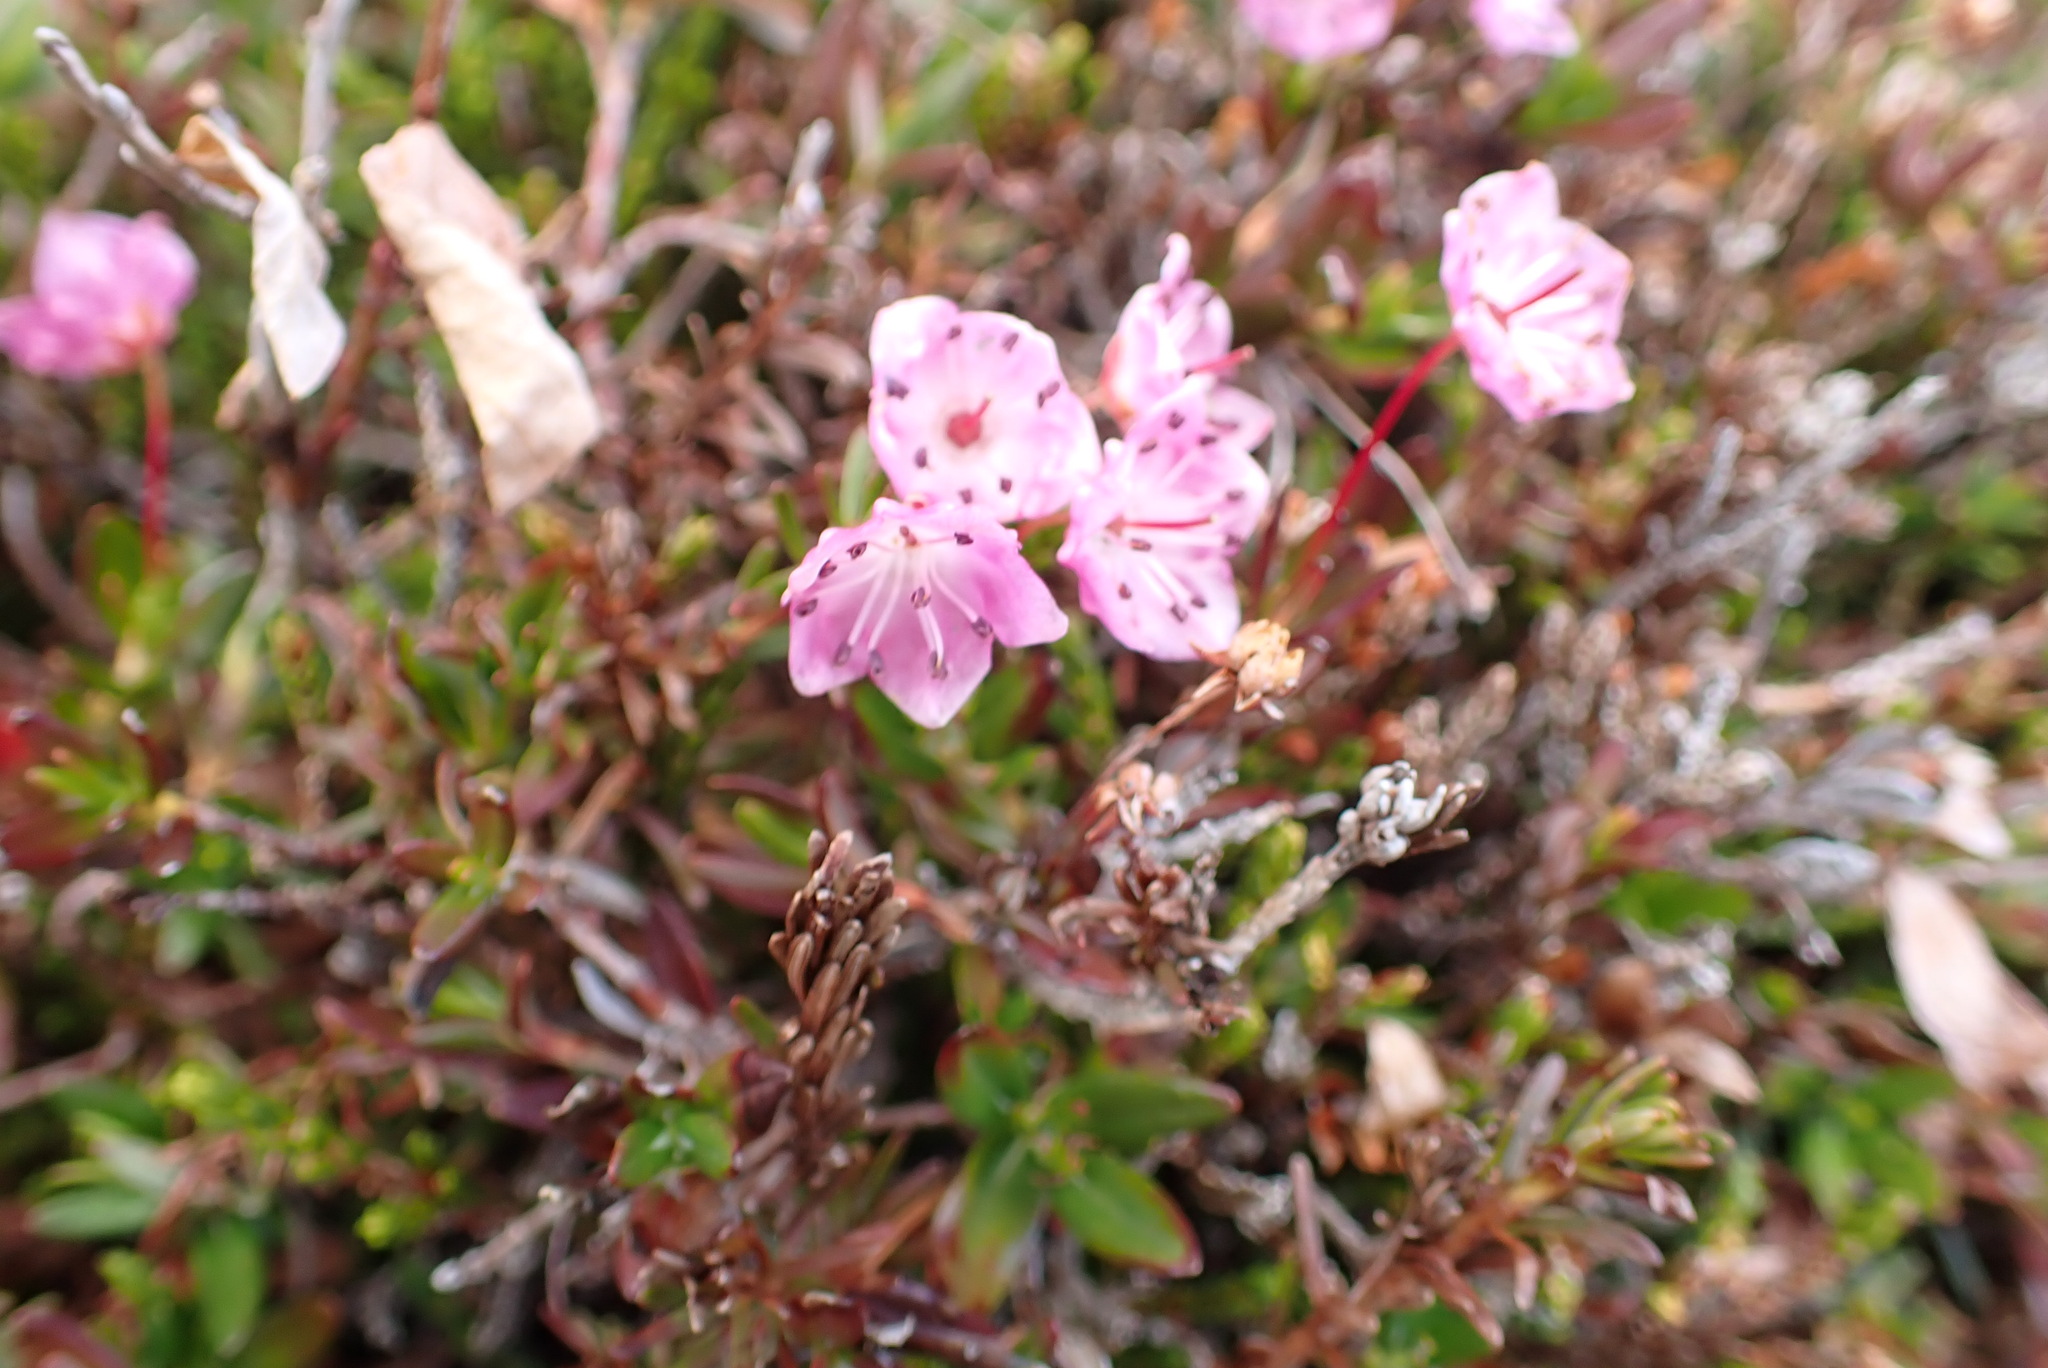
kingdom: Plantae
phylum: Tracheophyta
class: Magnoliopsida
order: Ericales
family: Ericaceae
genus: Kalmia
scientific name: Kalmia microphylla
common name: Alpine bog laurel
